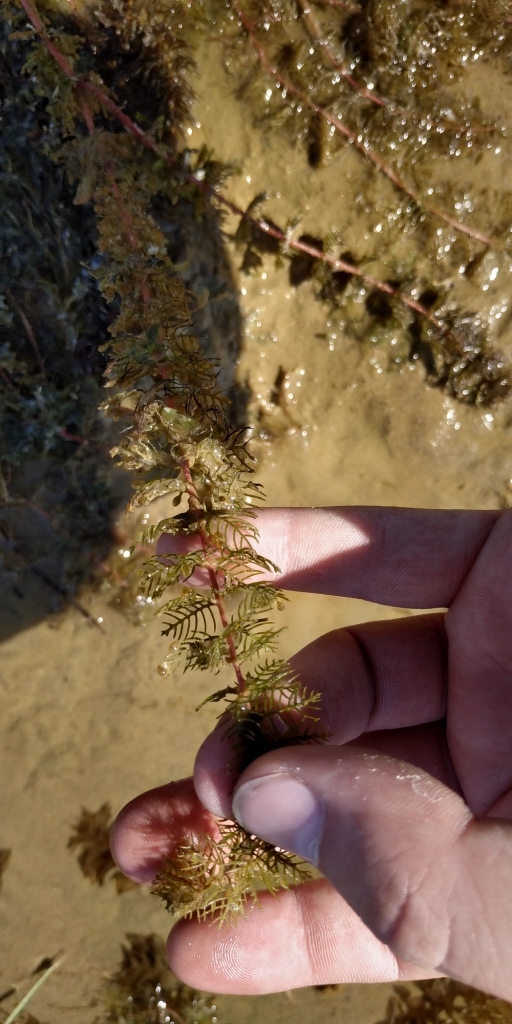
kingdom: Plantae
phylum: Tracheophyta
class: Magnoliopsida
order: Saxifragales
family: Haloragaceae
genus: Myriophyllum
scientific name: Myriophyllum sibiricum
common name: Siberian water-milfoil
